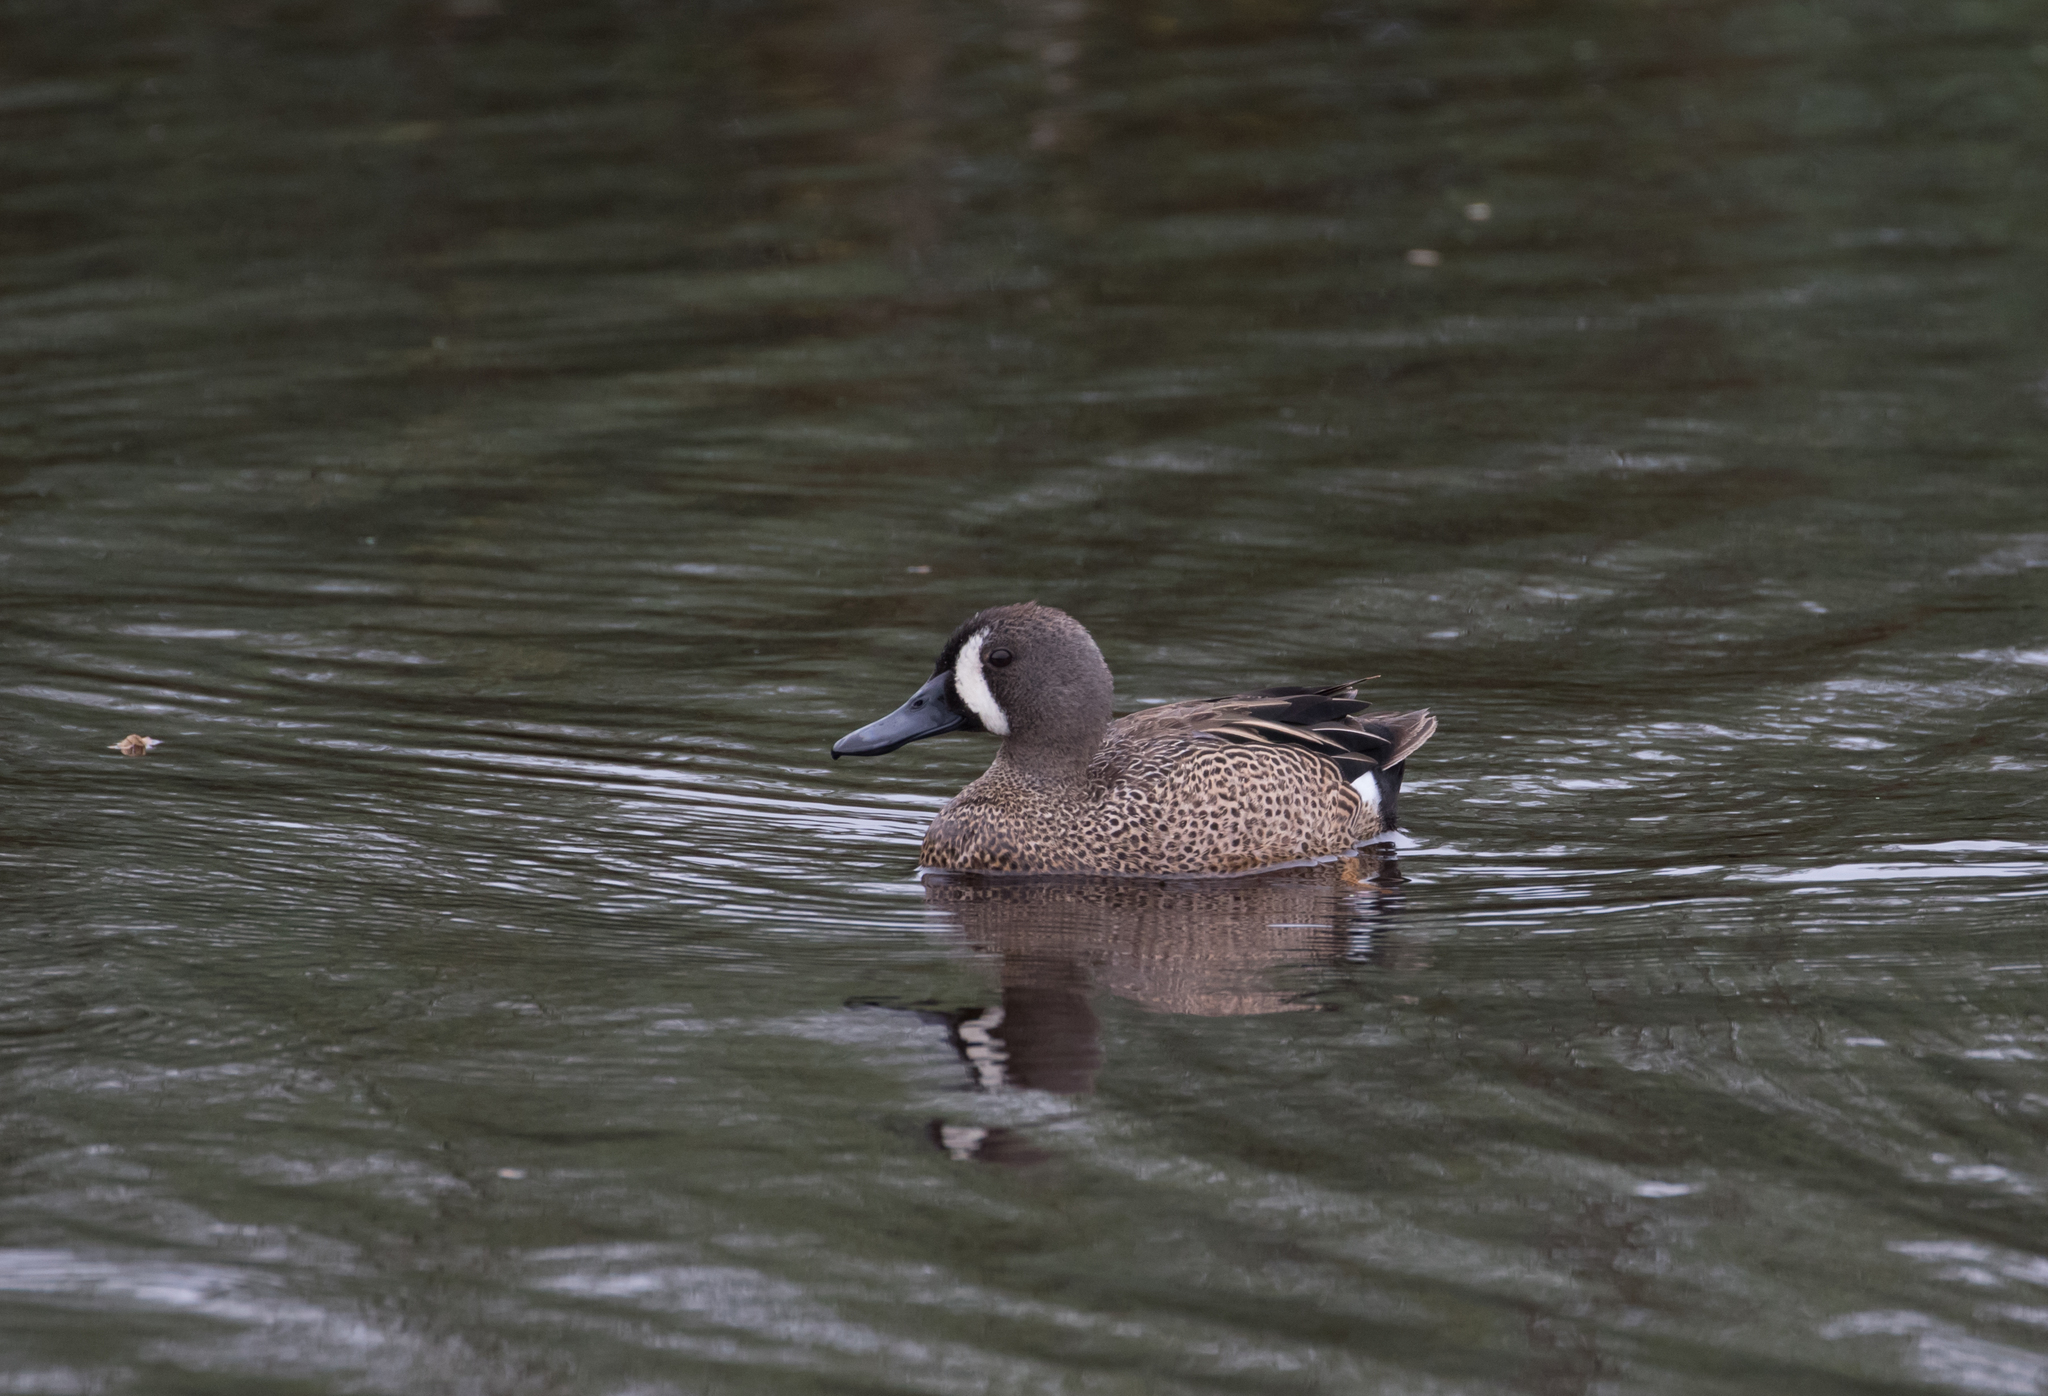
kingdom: Animalia
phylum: Chordata
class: Aves
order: Anseriformes
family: Anatidae
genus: Spatula
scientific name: Spatula discors
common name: Blue-winged teal
